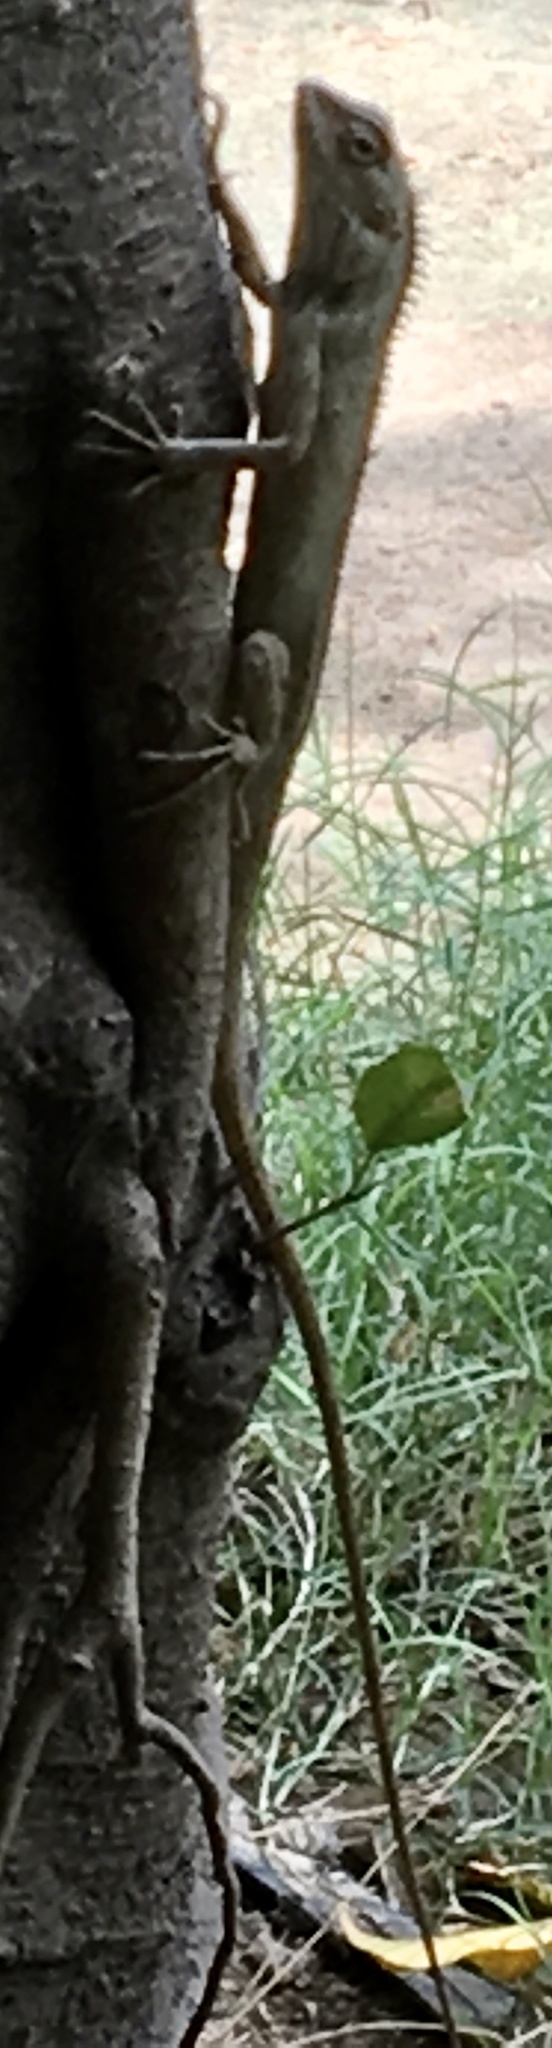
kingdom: Animalia
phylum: Chordata
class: Squamata
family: Agamidae
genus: Calotes
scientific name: Calotes versicolor
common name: Oriental garden lizard
